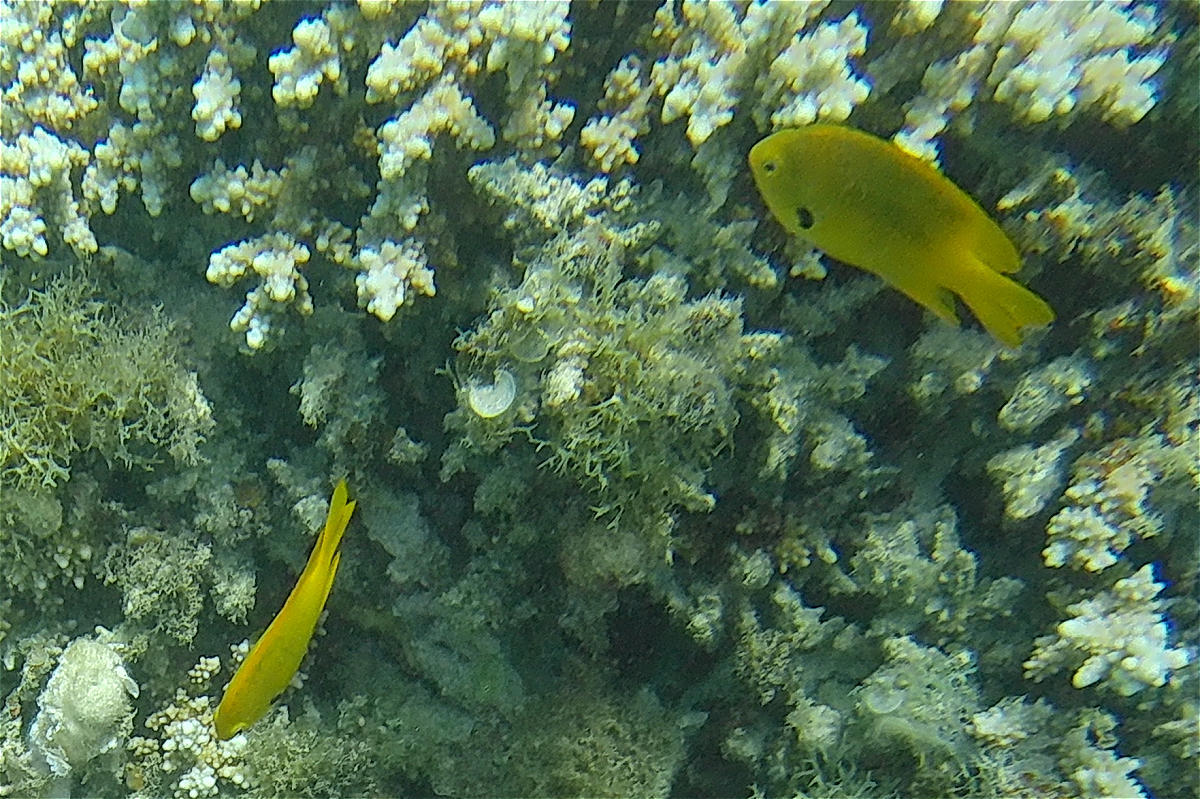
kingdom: Animalia
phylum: Chordata
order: Perciformes
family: Pomacentridae
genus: Pomacentrus
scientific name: Pomacentrus sulfureus
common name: Sulfur damsel
